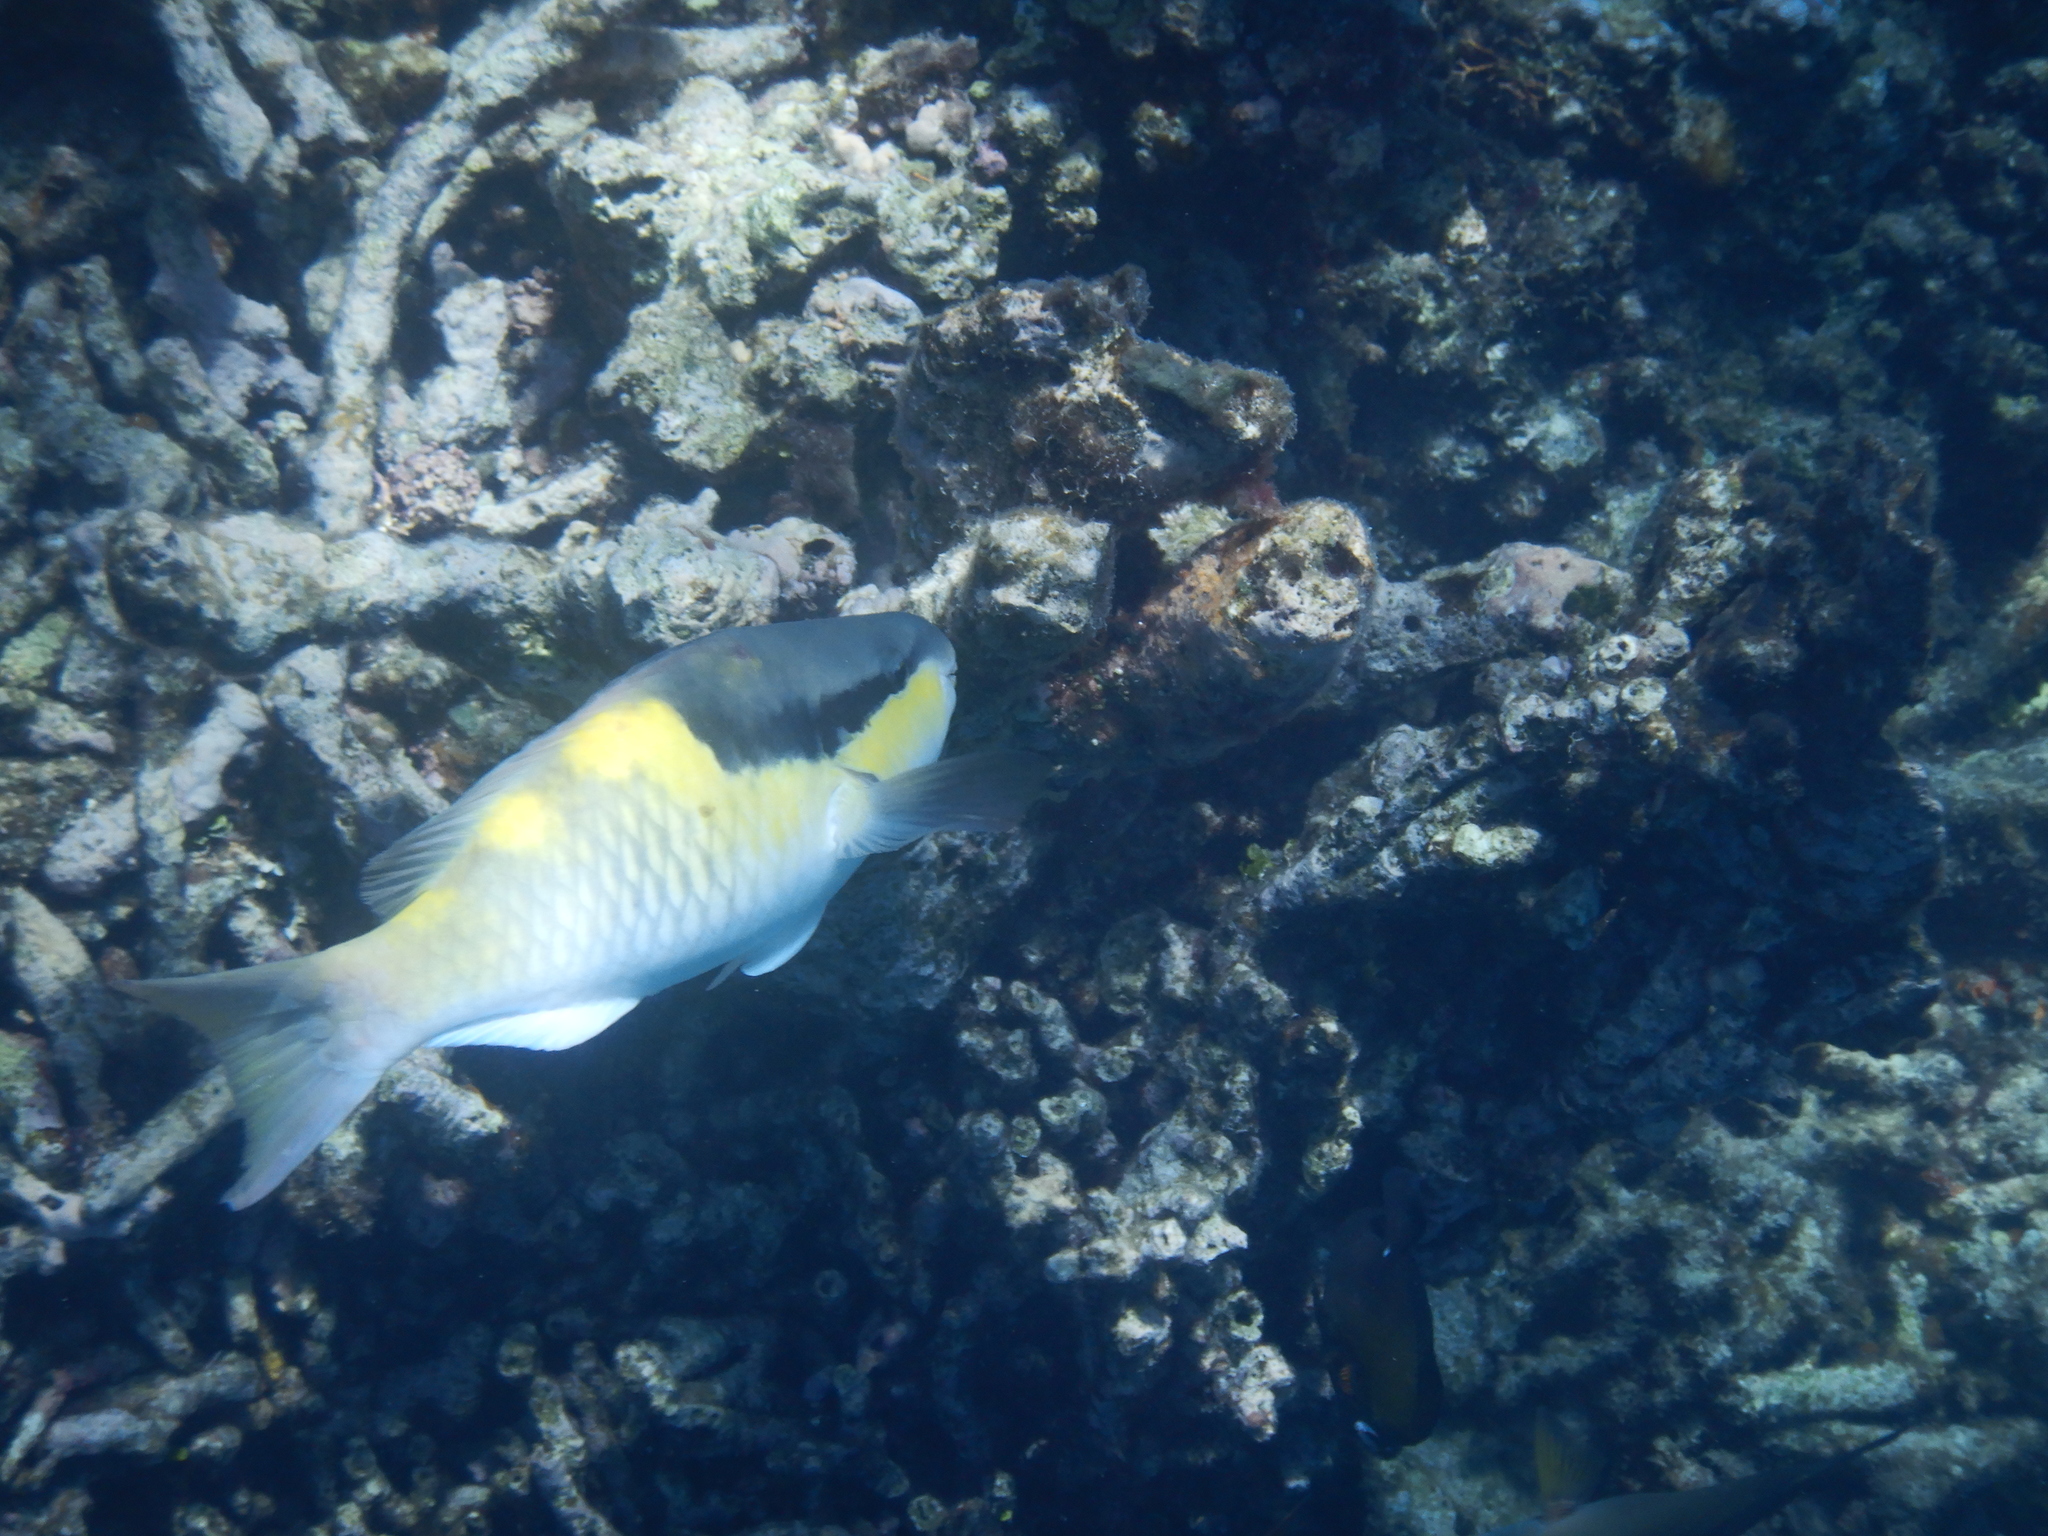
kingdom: Animalia
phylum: Chordata
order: Perciformes
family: Scaridae
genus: Scarus
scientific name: Scarus oviceps
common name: Blue parrotfish
